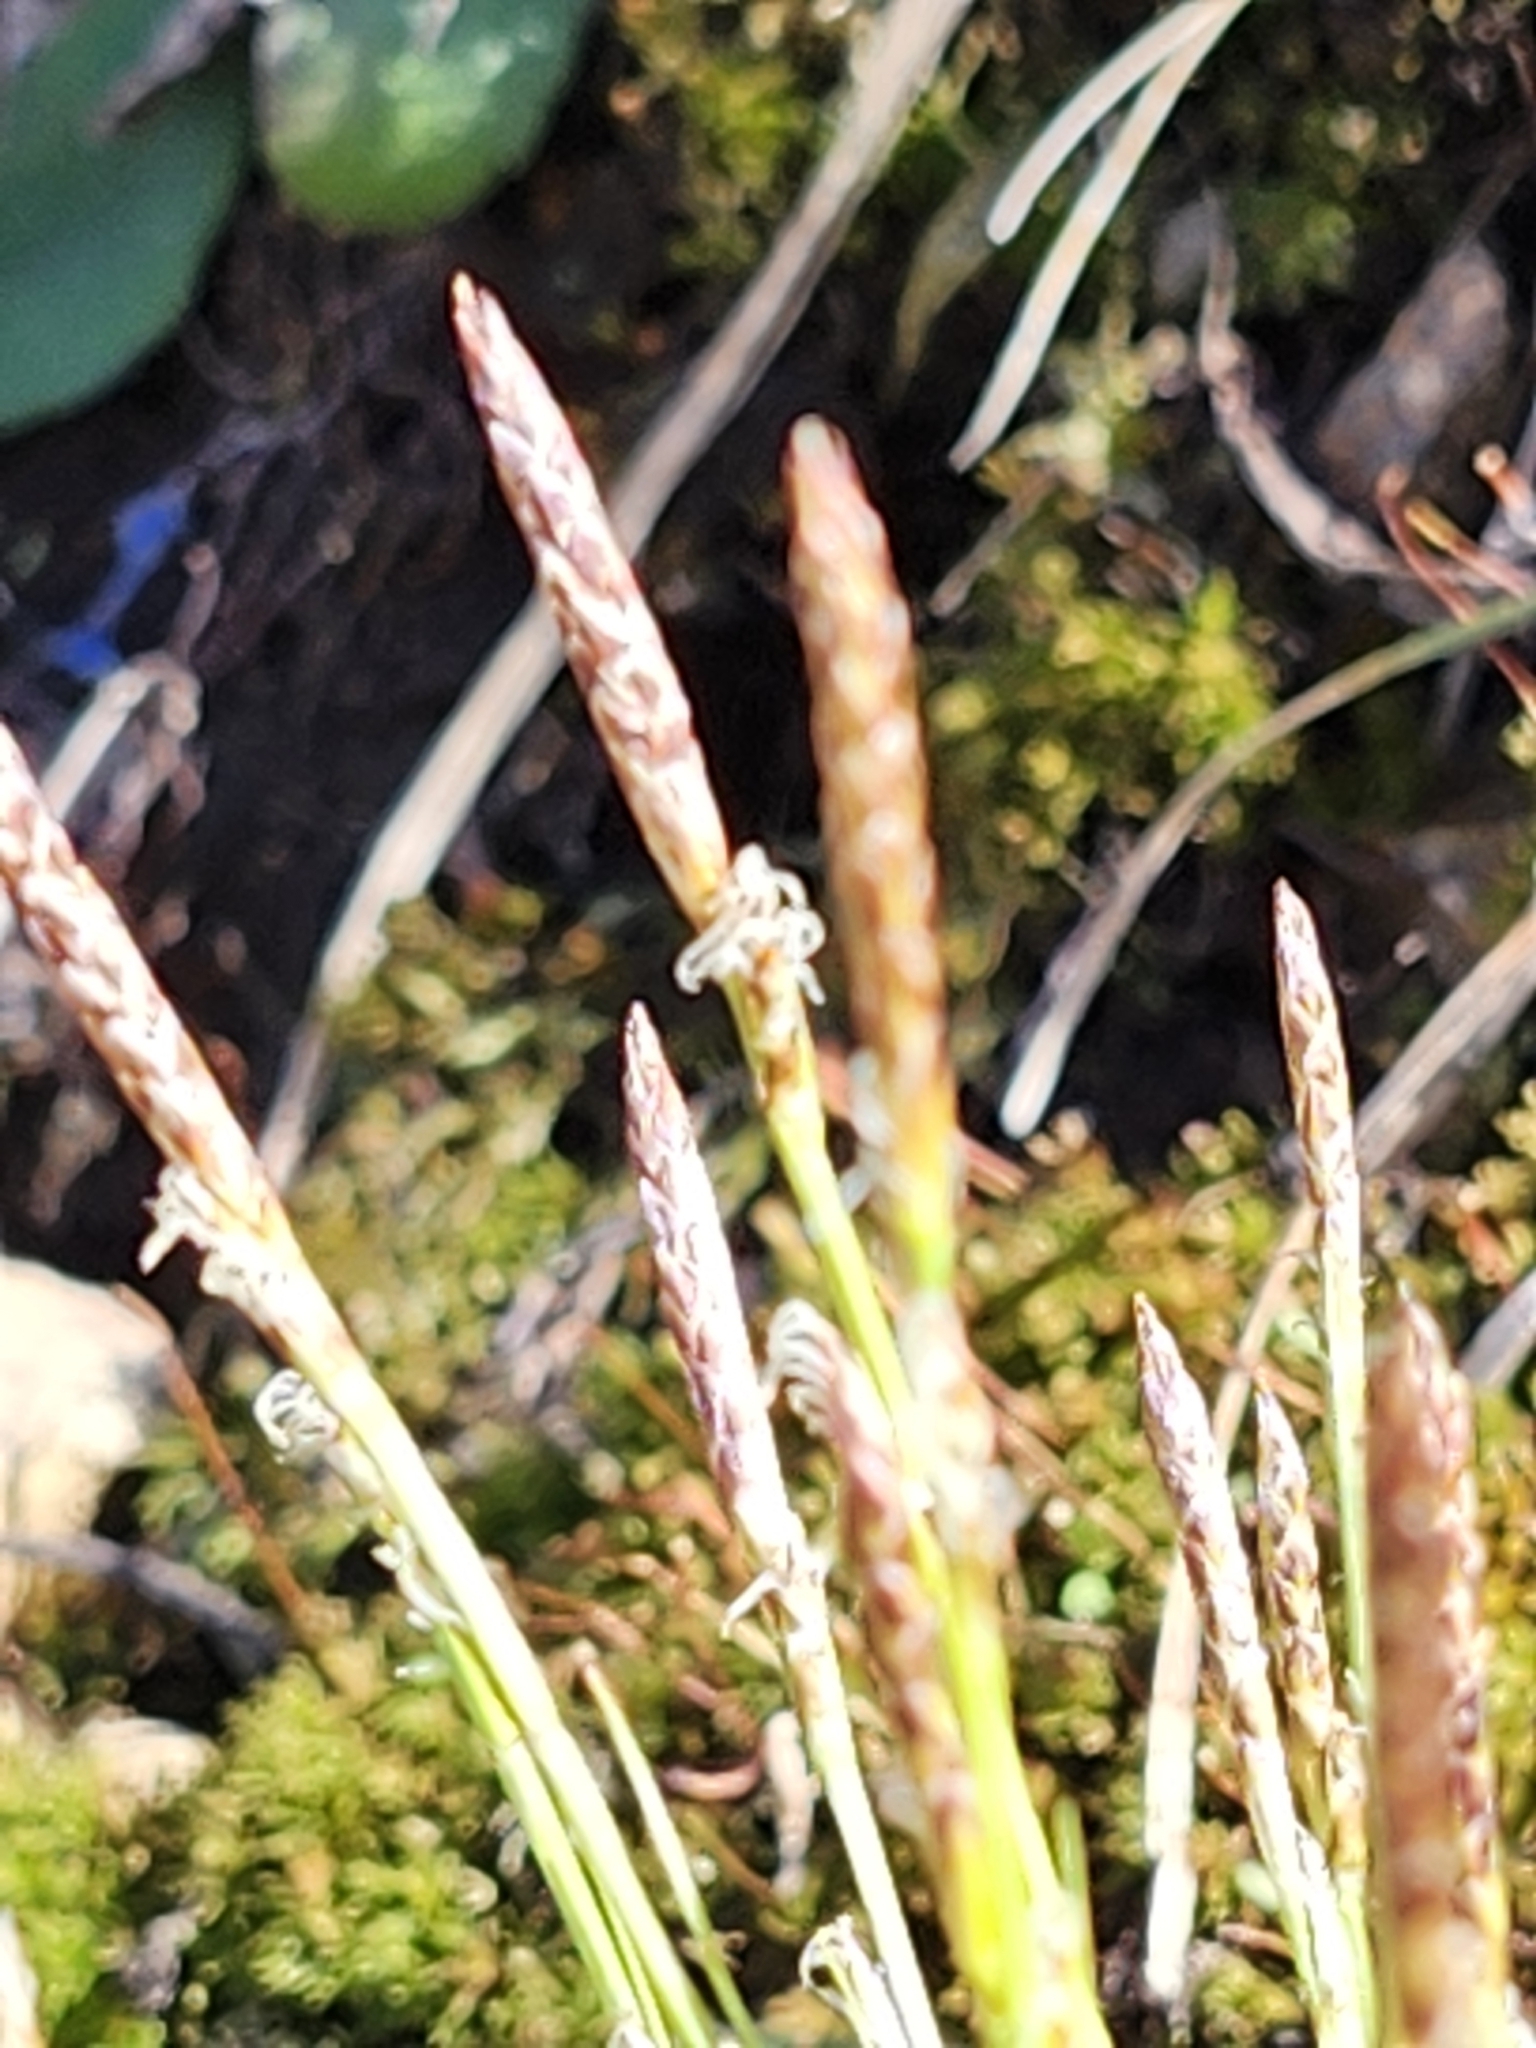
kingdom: Plantae
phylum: Tracheophyta
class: Liliopsida
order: Poales
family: Cyperaceae
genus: Carex
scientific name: Carex pensylvanica
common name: Common oak sedge
